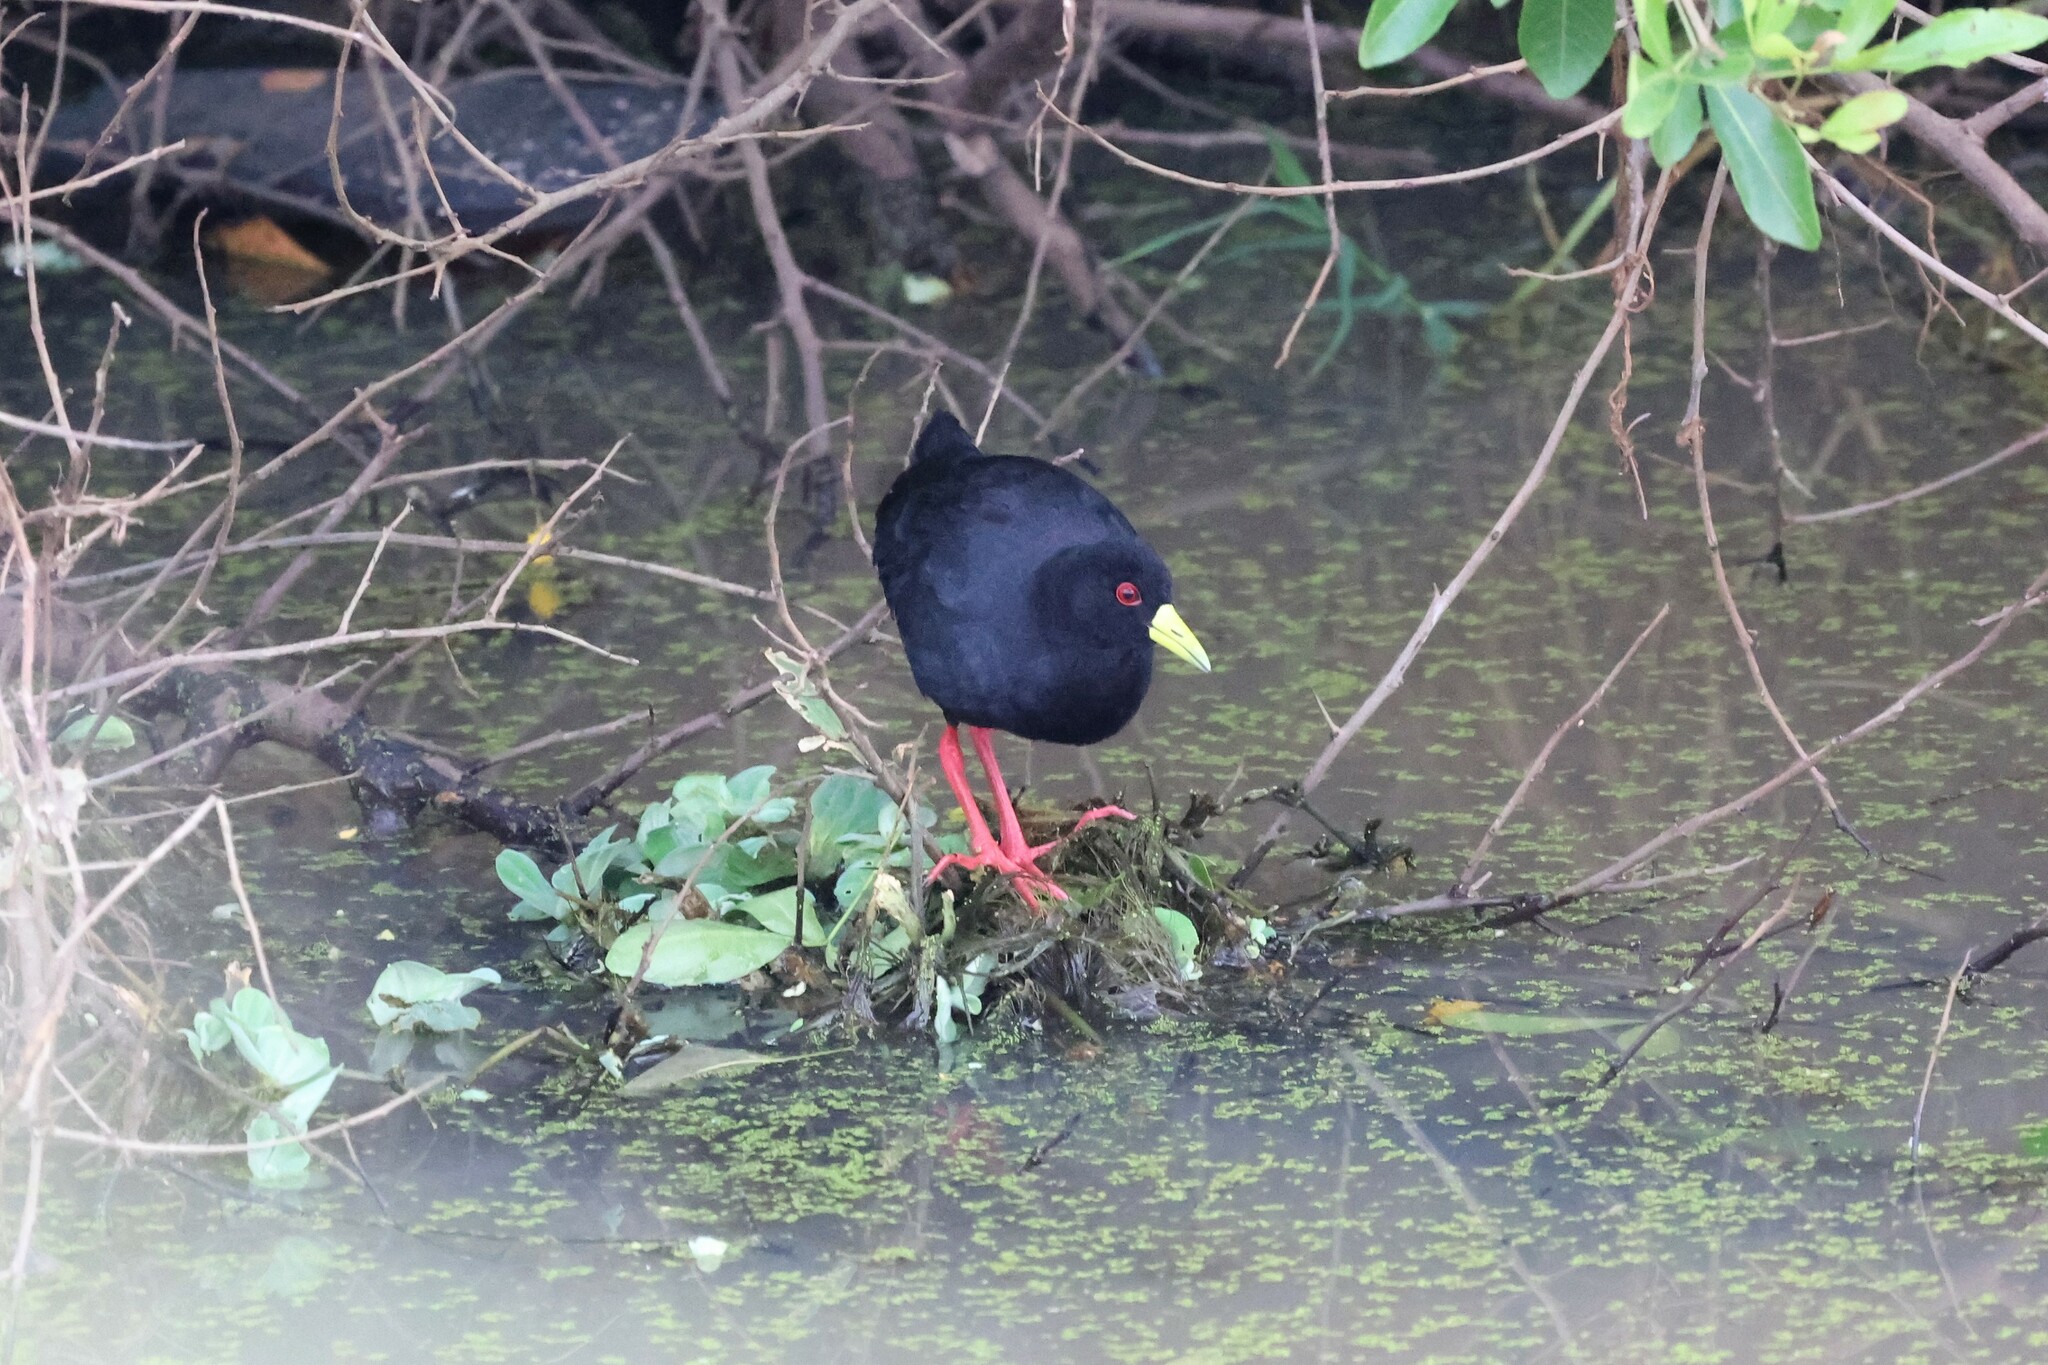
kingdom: Animalia
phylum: Chordata
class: Aves
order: Gruiformes
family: Rallidae
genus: Amaurornis
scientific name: Amaurornis flavirostra
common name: Black crake
